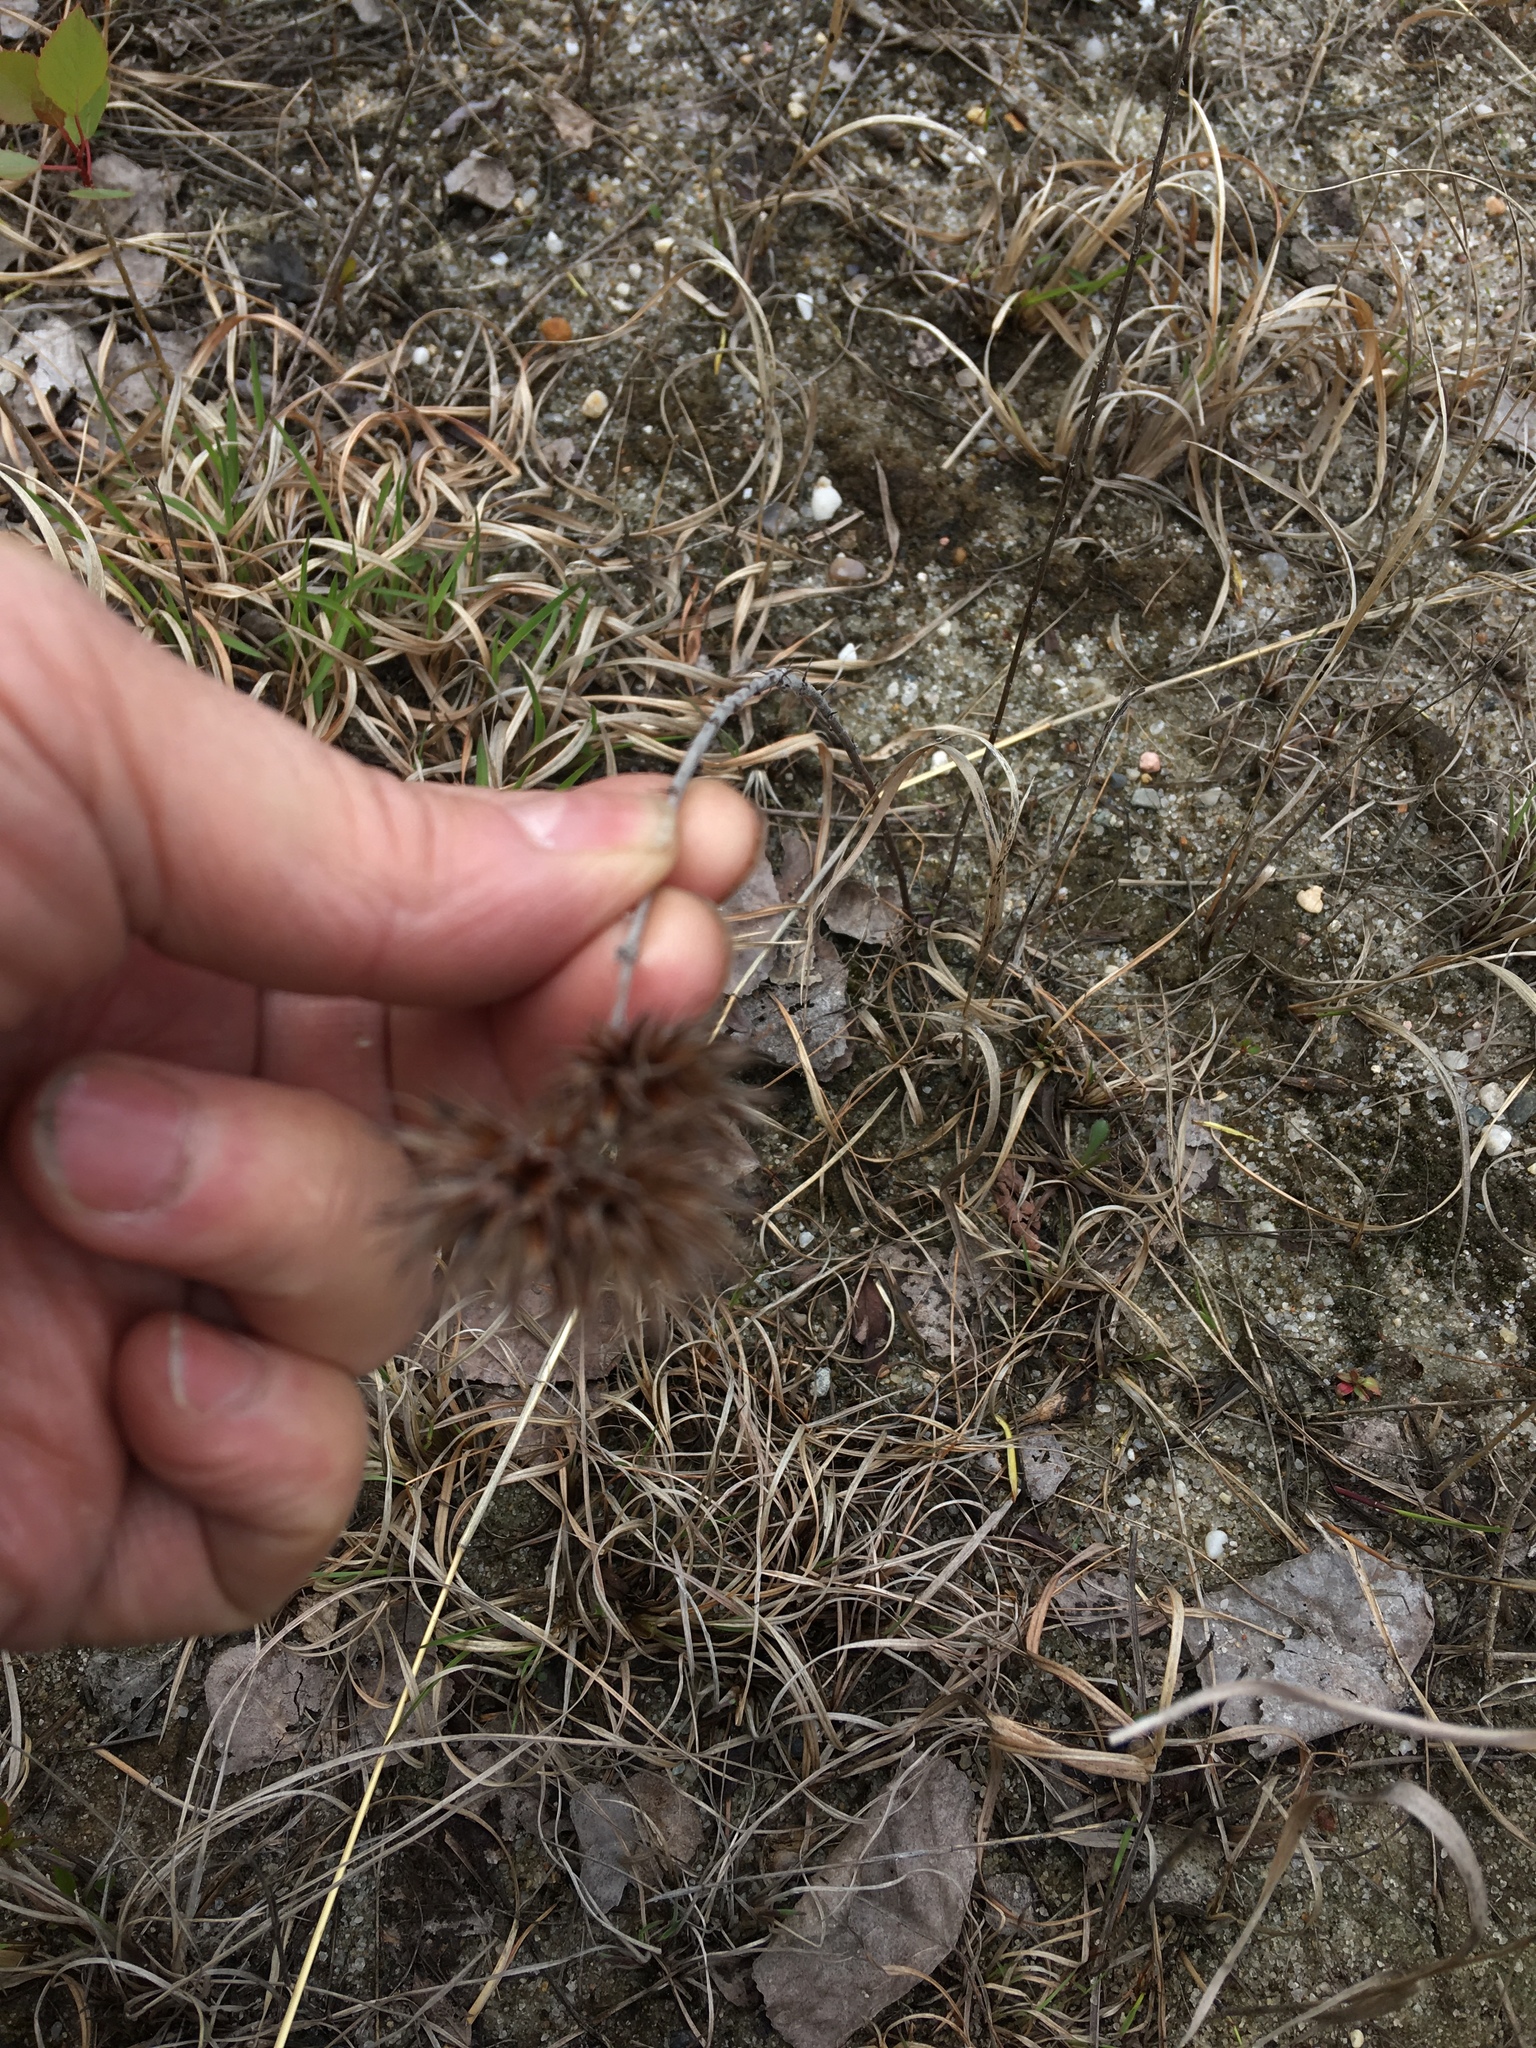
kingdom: Plantae
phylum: Tracheophyta
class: Magnoliopsida
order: Fabales
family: Fabaceae
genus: Lespedeza
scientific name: Lespedeza capitata
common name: Dusty clover
